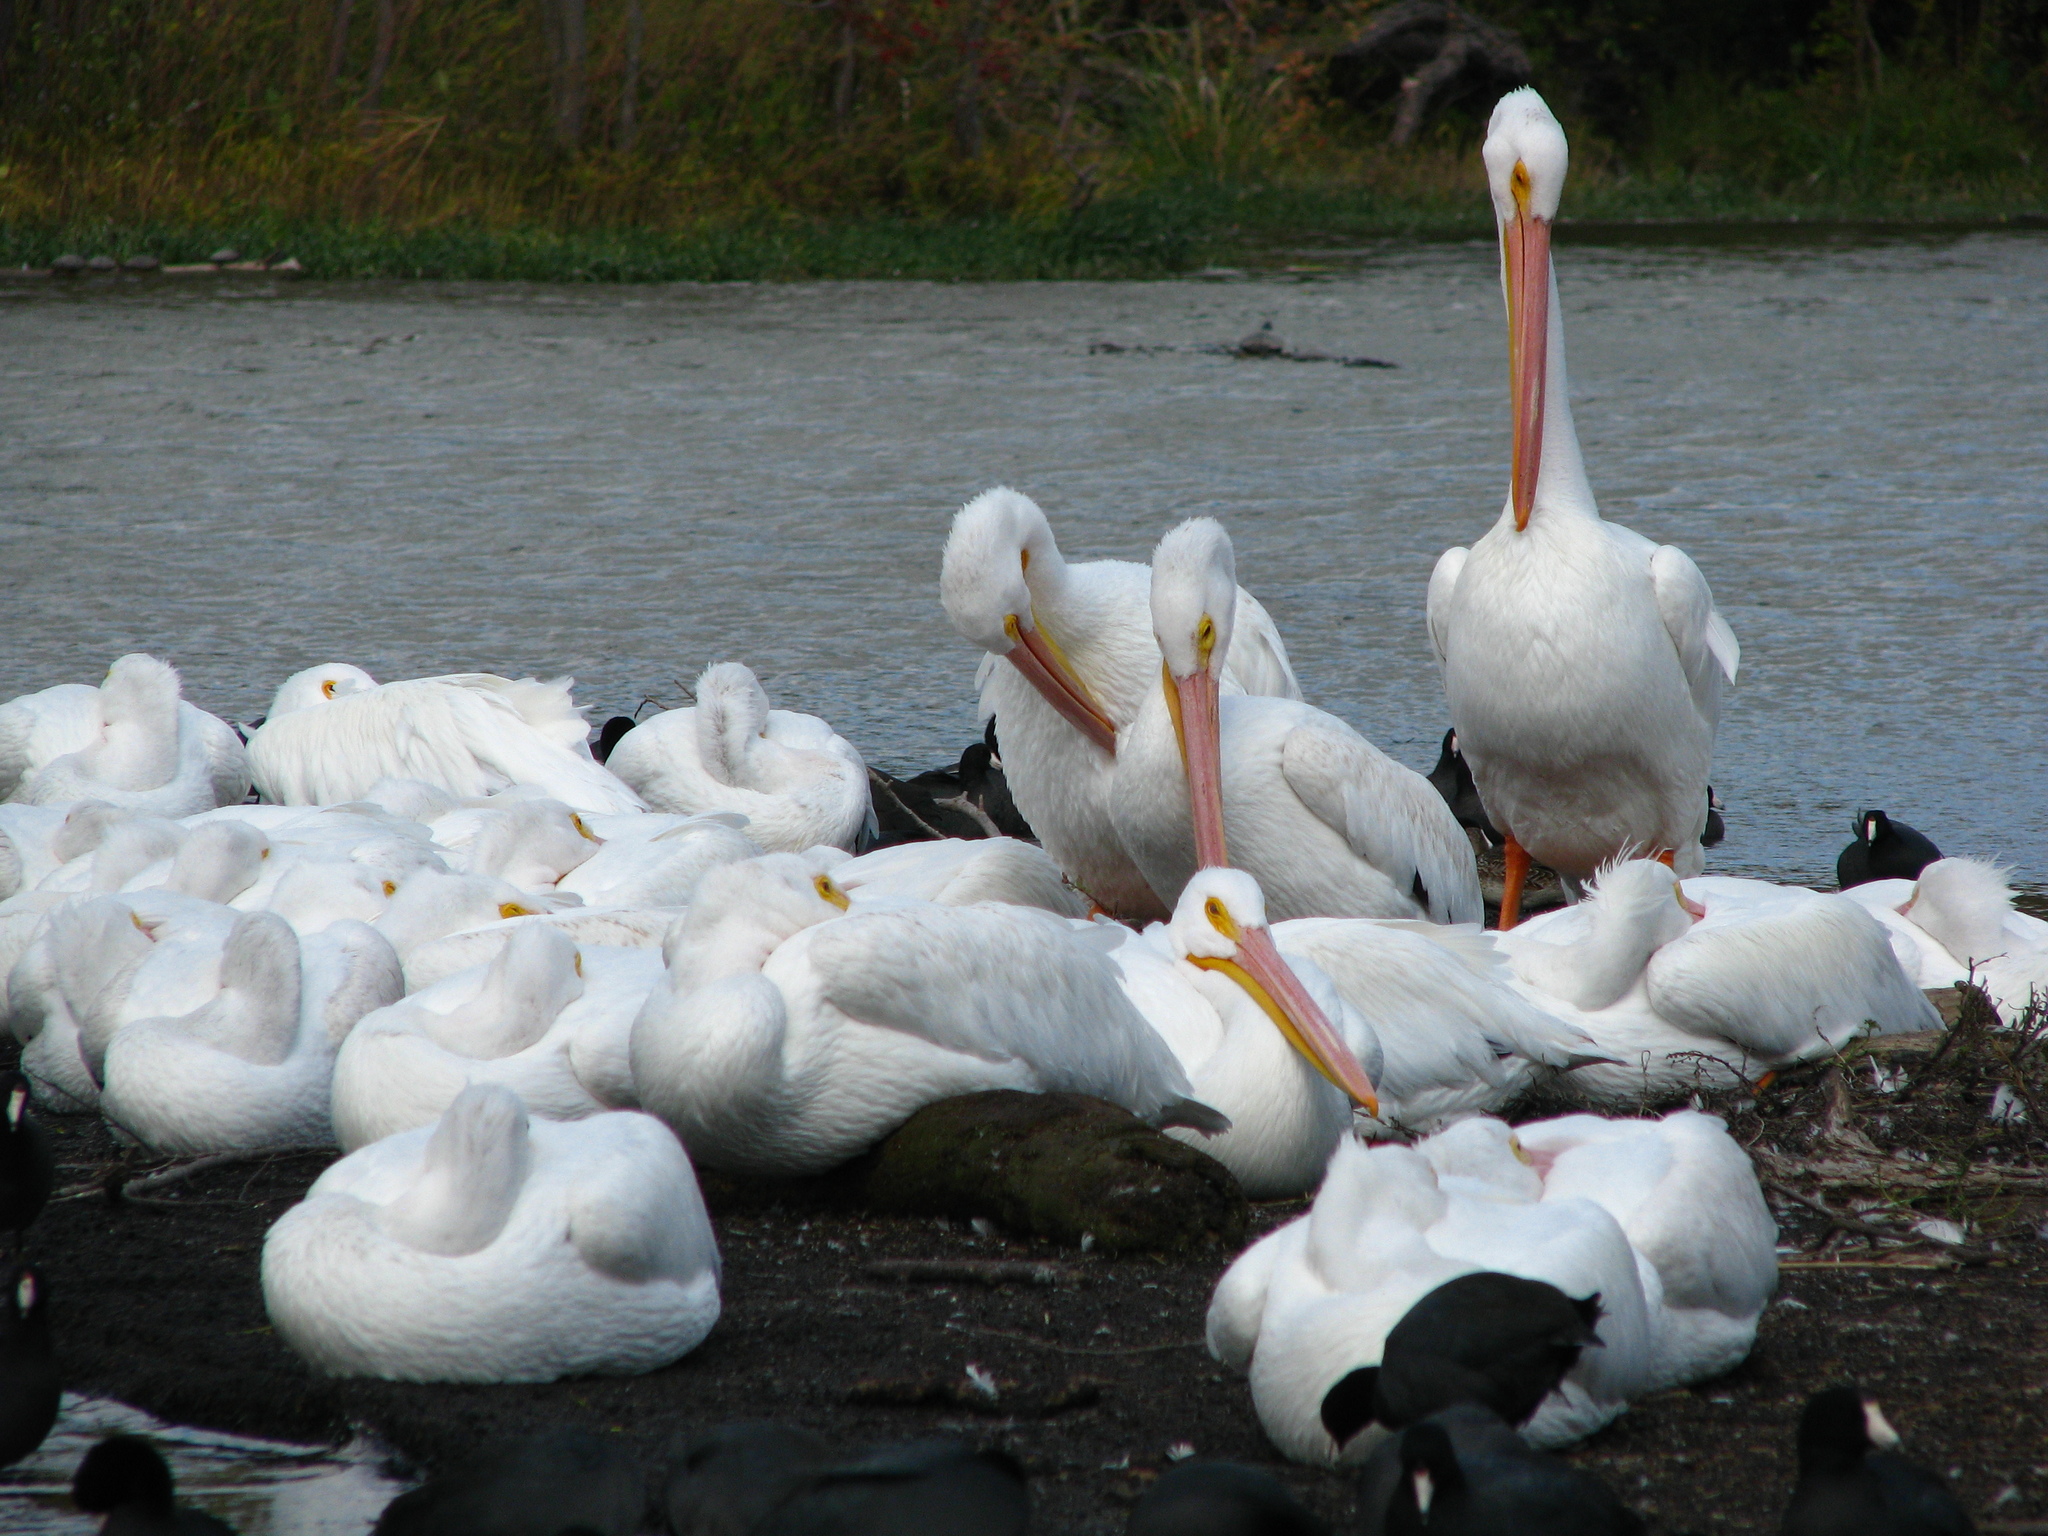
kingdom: Animalia
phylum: Chordata
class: Aves
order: Pelecaniformes
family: Pelecanidae
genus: Pelecanus
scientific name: Pelecanus erythrorhynchos
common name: American white pelican
